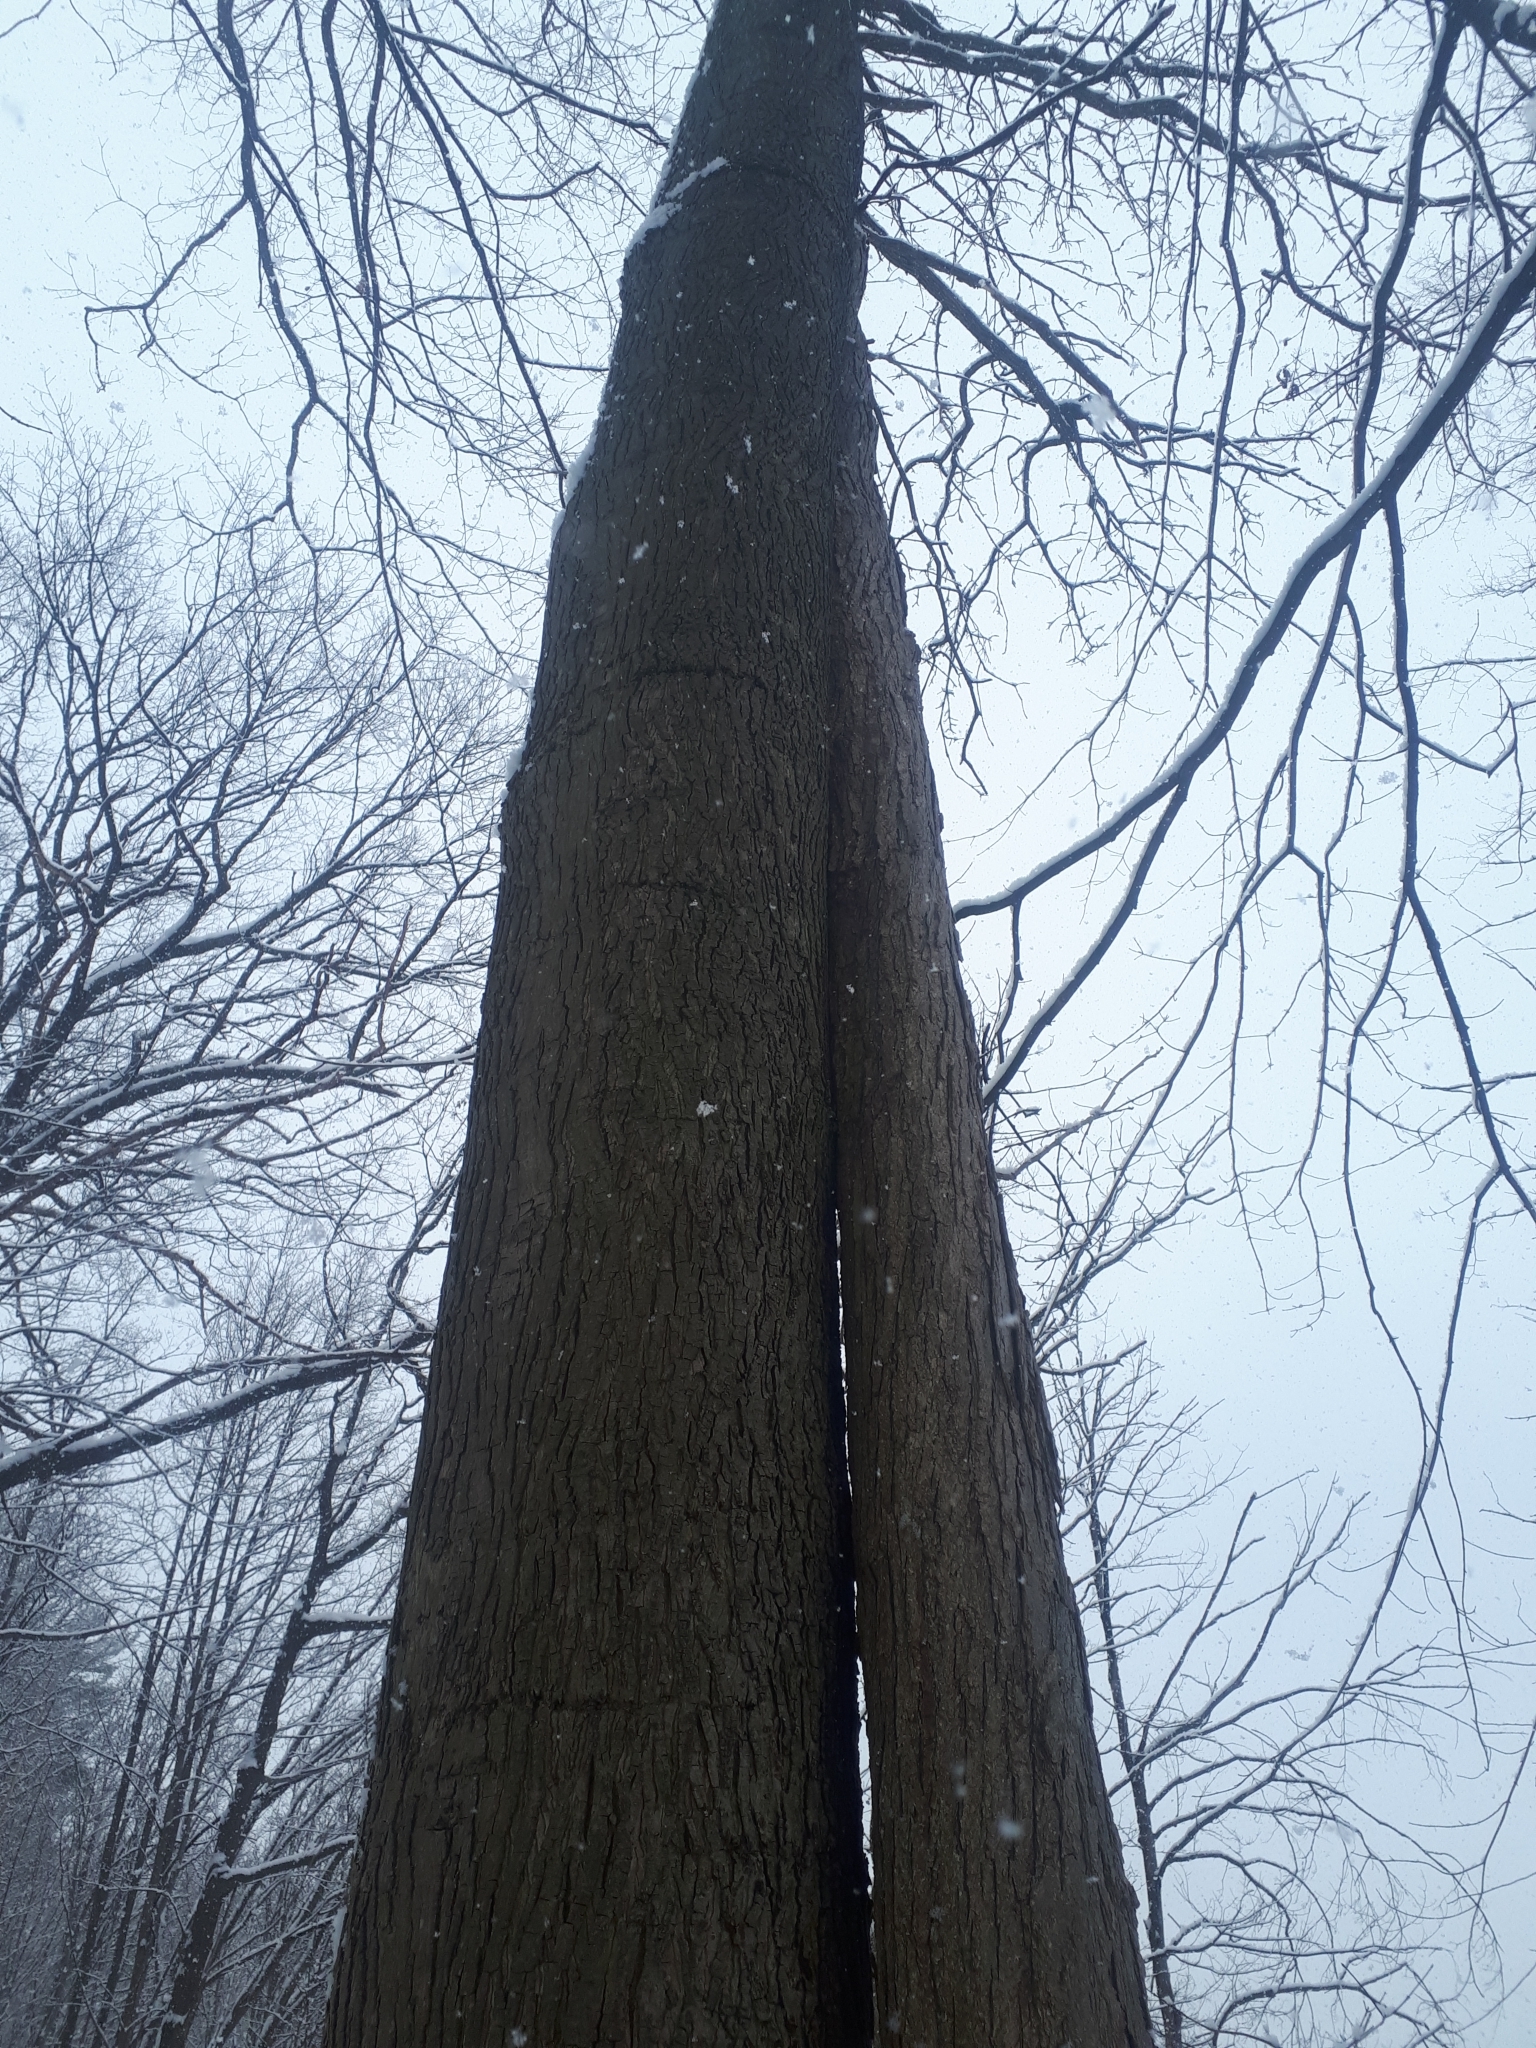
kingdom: Plantae
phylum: Tracheophyta
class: Magnoliopsida
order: Fagales
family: Juglandaceae
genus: Carya
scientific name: Carya cordiformis
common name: Bitternut hickory
